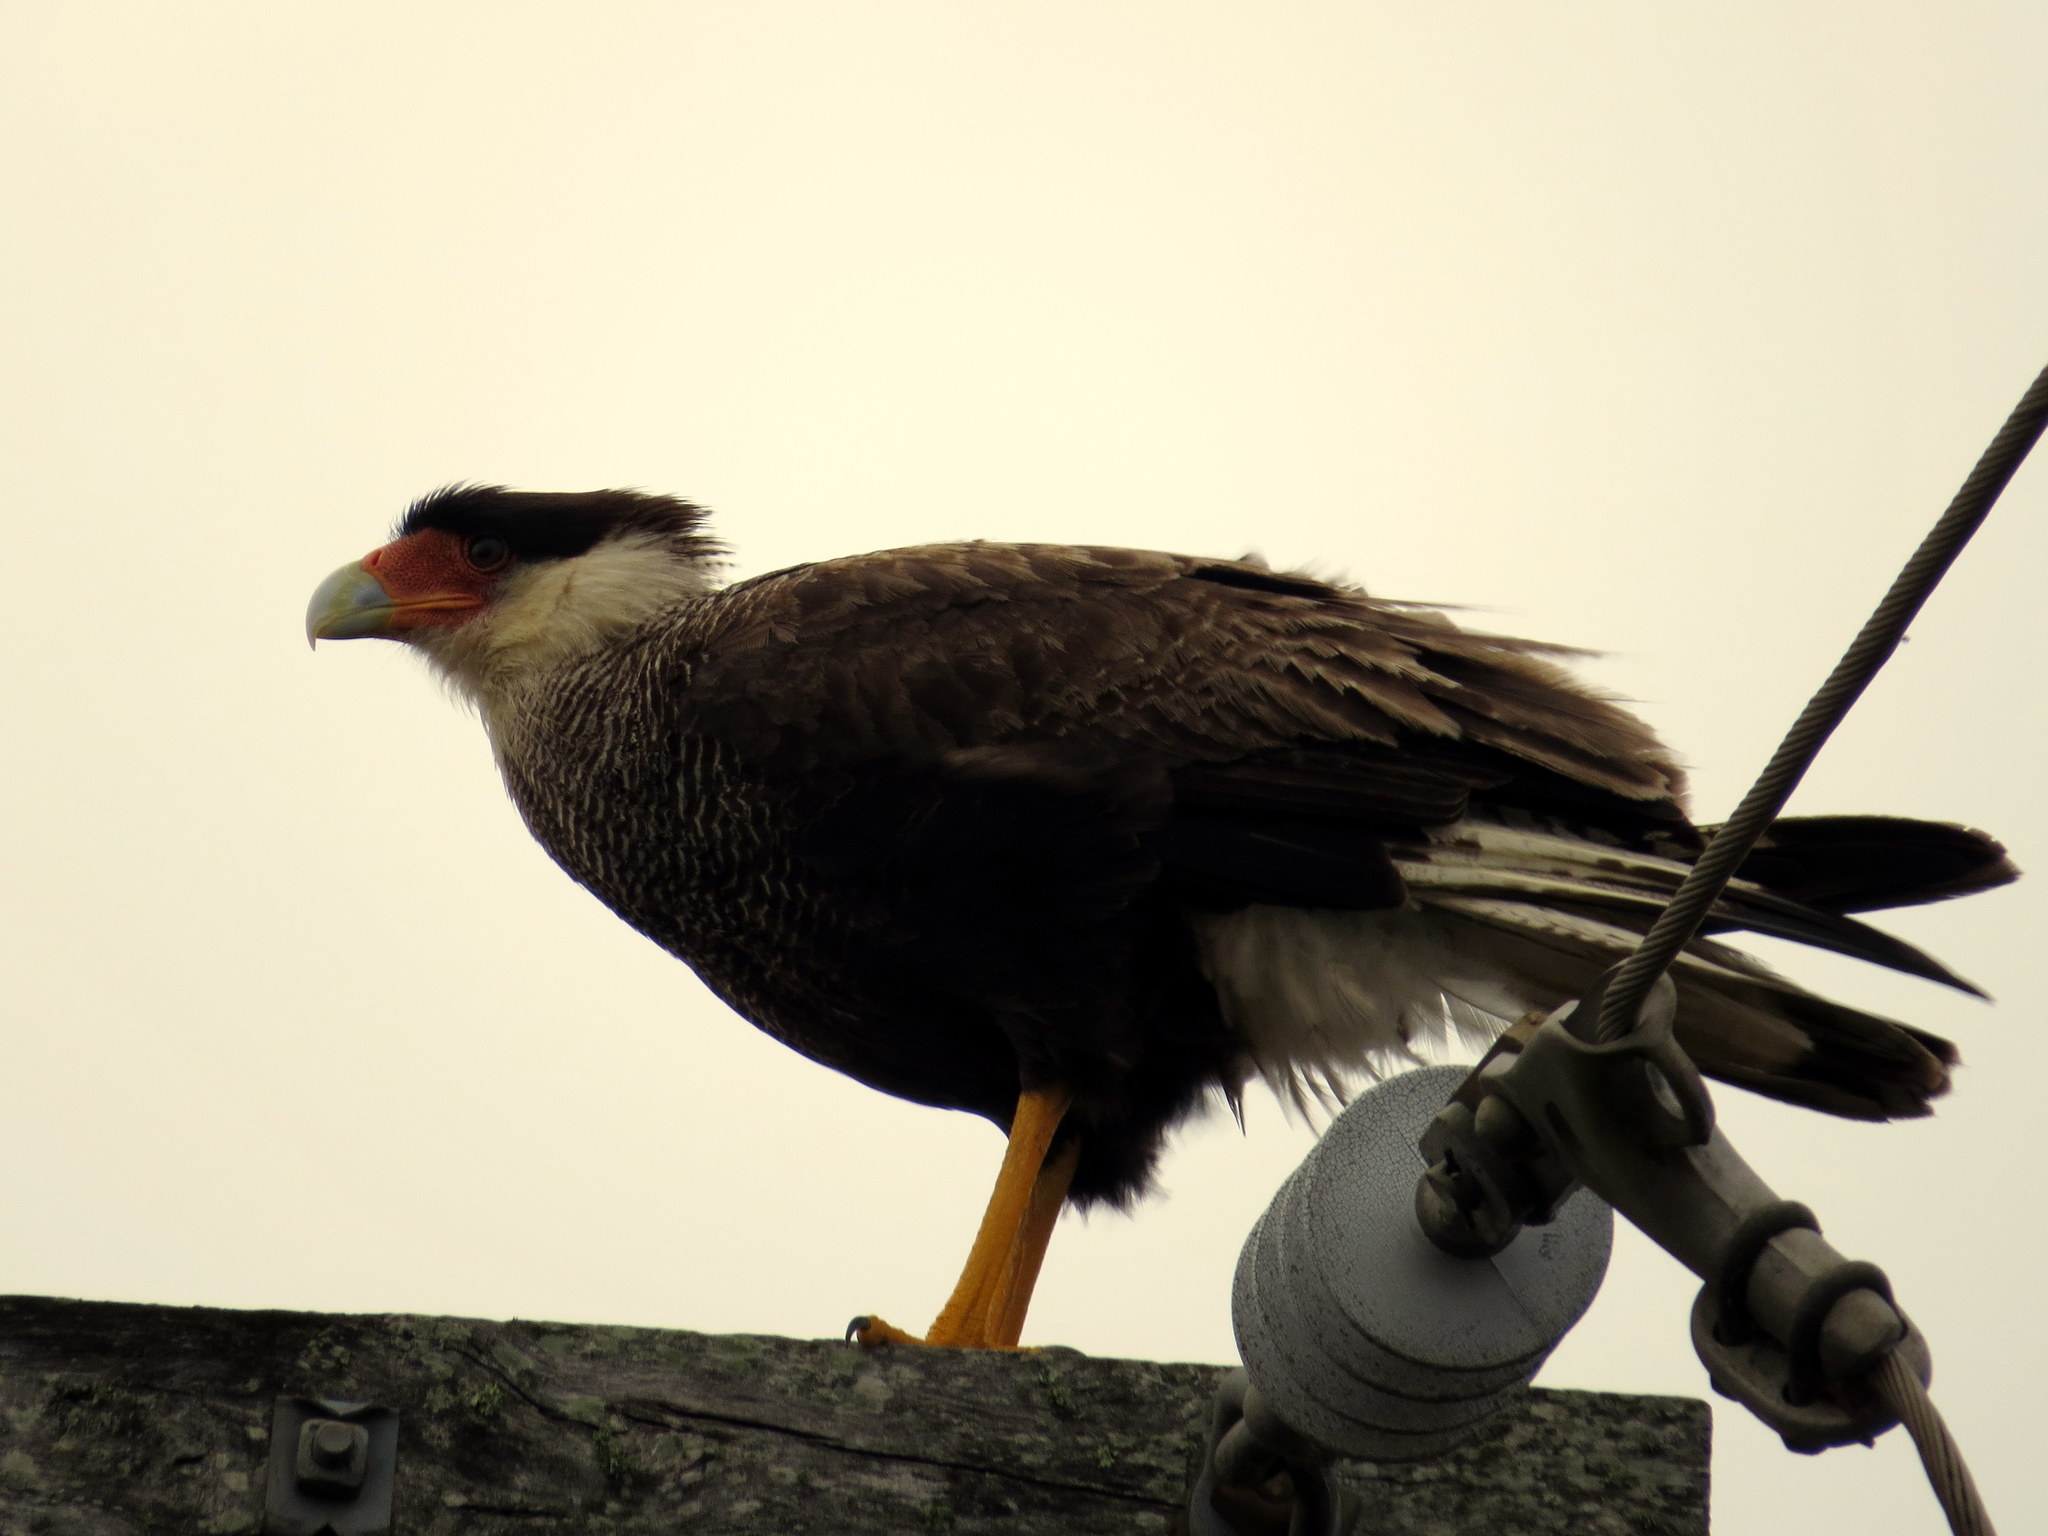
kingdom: Animalia
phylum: Chordata
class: Aves
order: Falconiformes
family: Falconidae
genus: Caracara
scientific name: Caracara plancus
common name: Southern caracara
